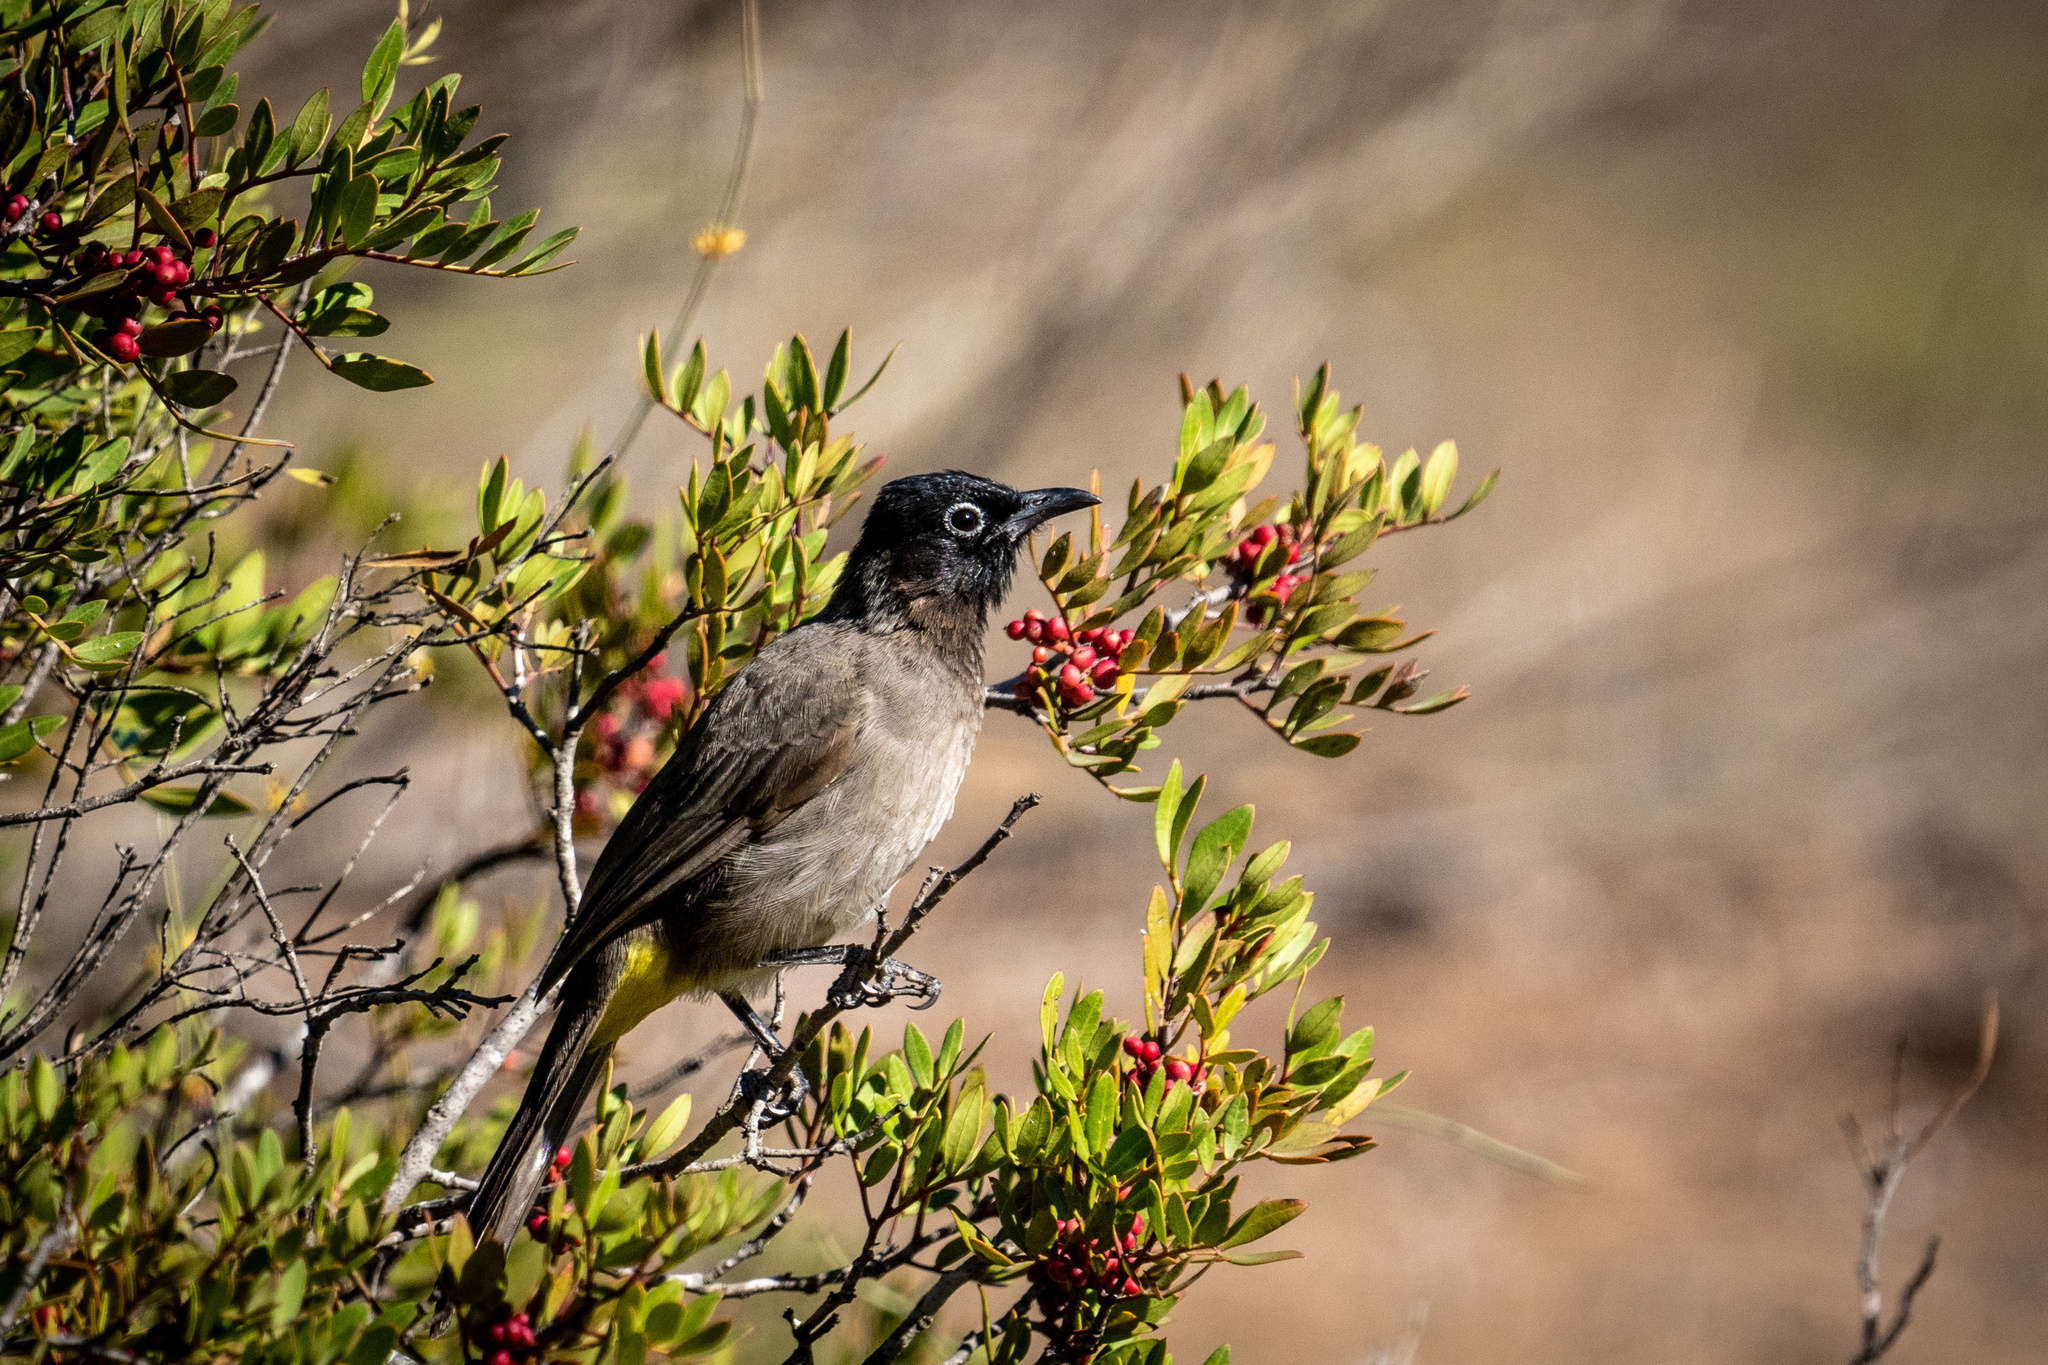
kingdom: Animalia
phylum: Chordata
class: Aves
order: Passeriformes
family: Pycnonotidae
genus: Pycnonotus
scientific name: Pycnonotus xanthopygos
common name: White-spectacled bulbul
